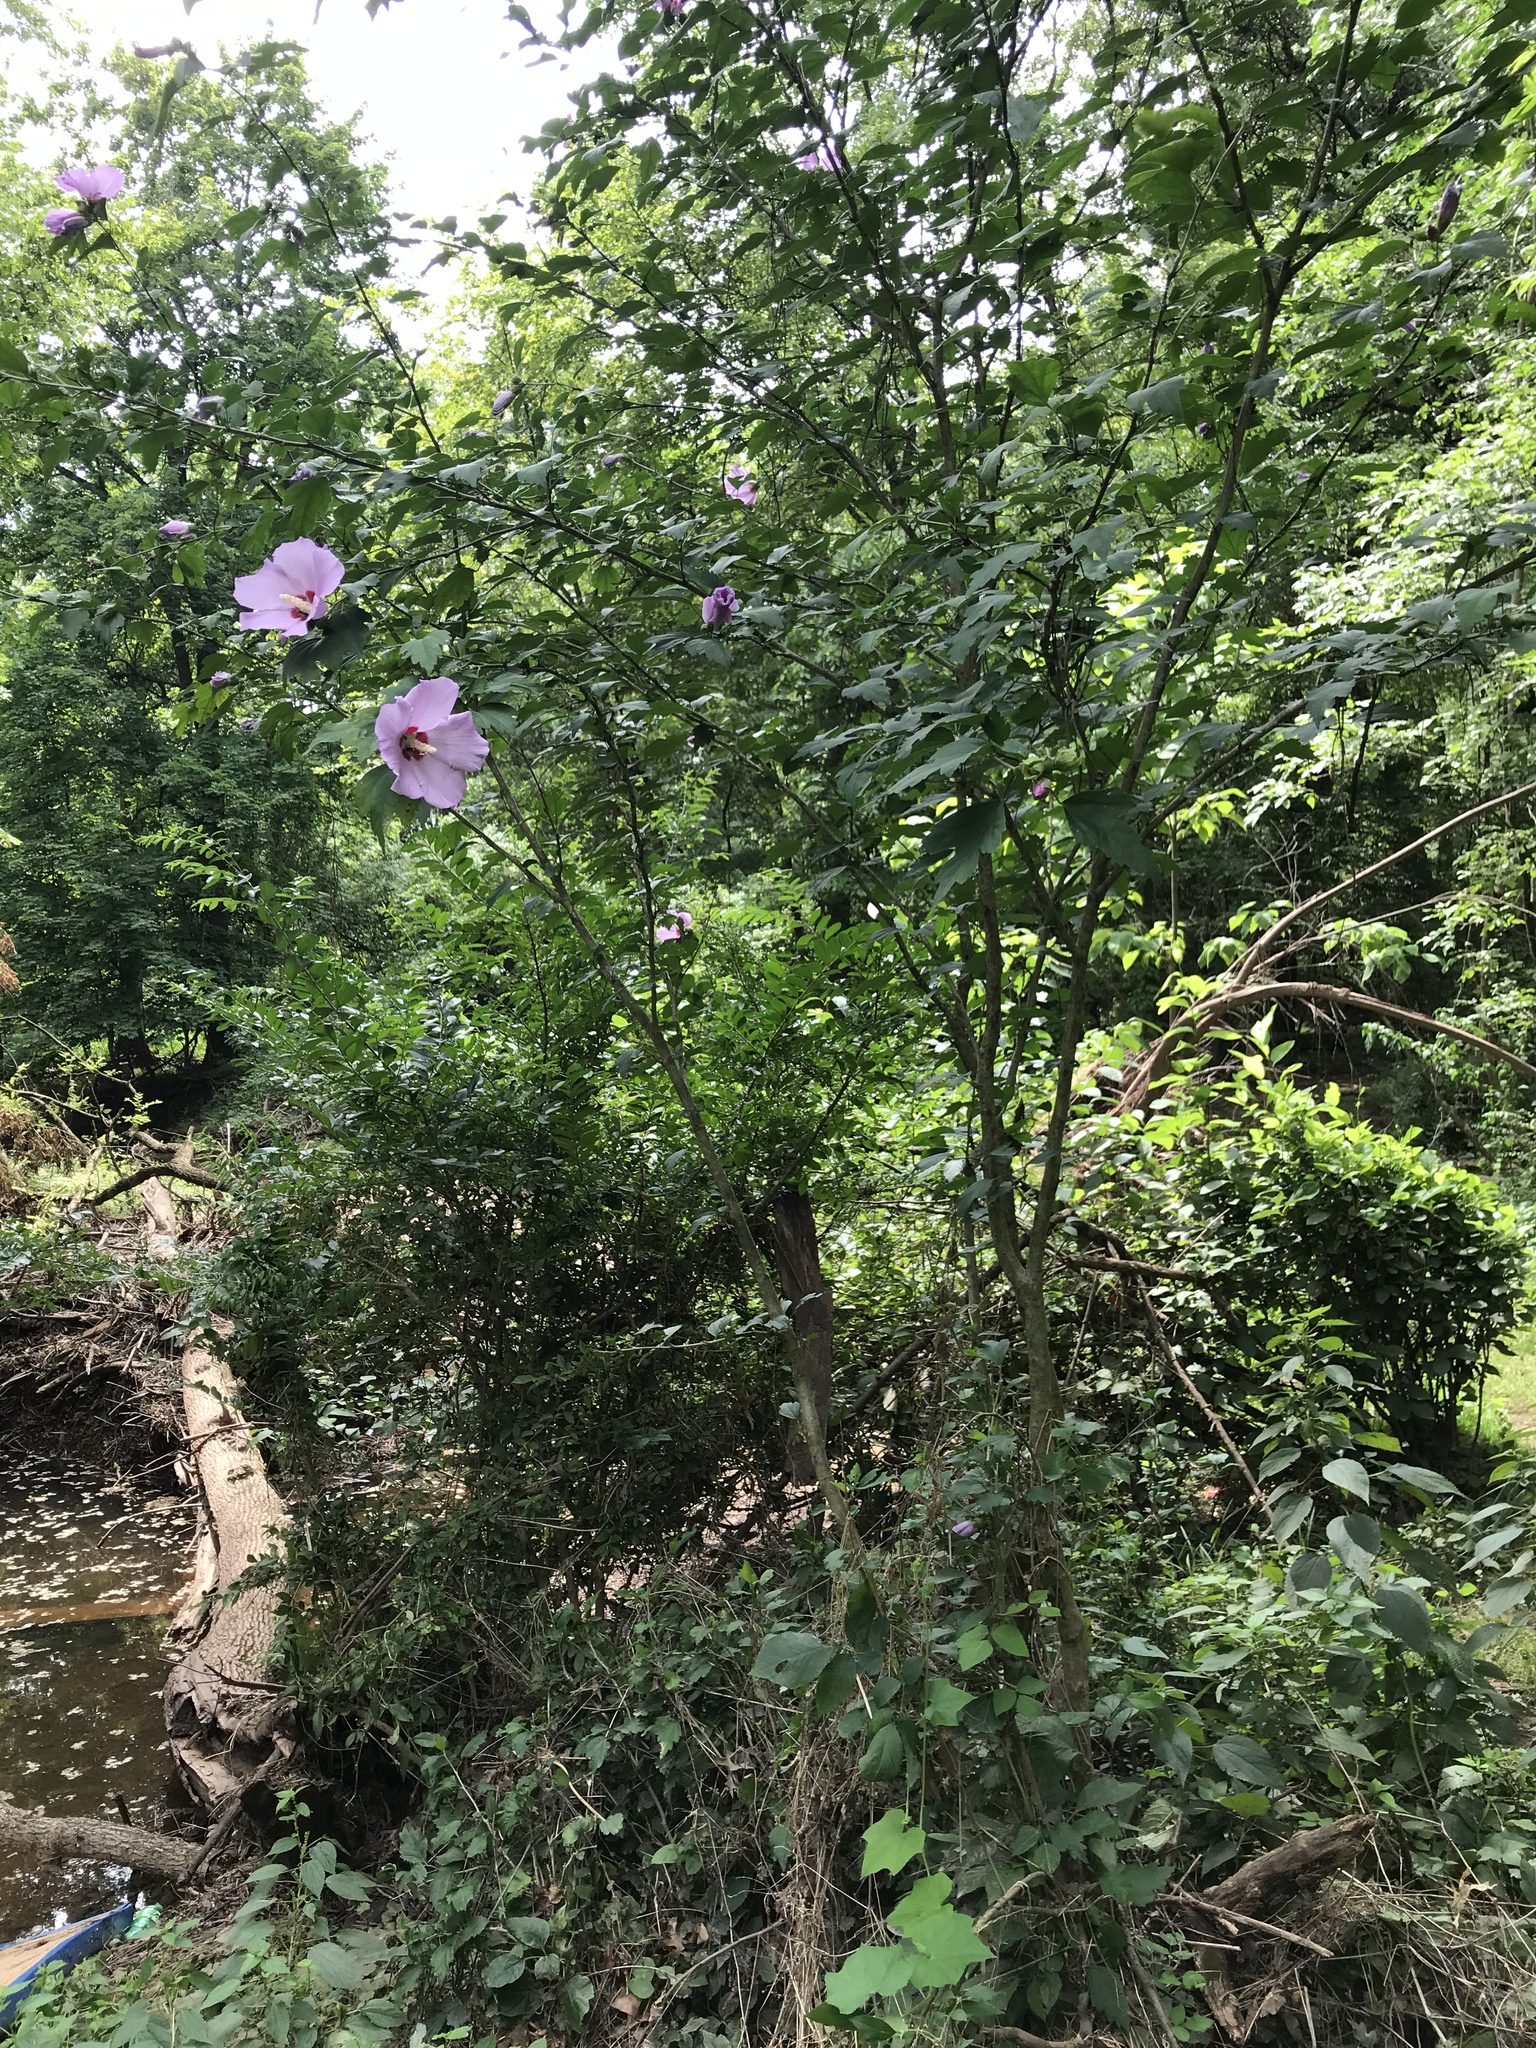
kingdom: Plantae
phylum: Tracheophyta
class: Magnoliopsida
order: Malvales
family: Malvaceae
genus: Hibiscus
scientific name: Hibiscus syriacus
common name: Syrian ketmia
